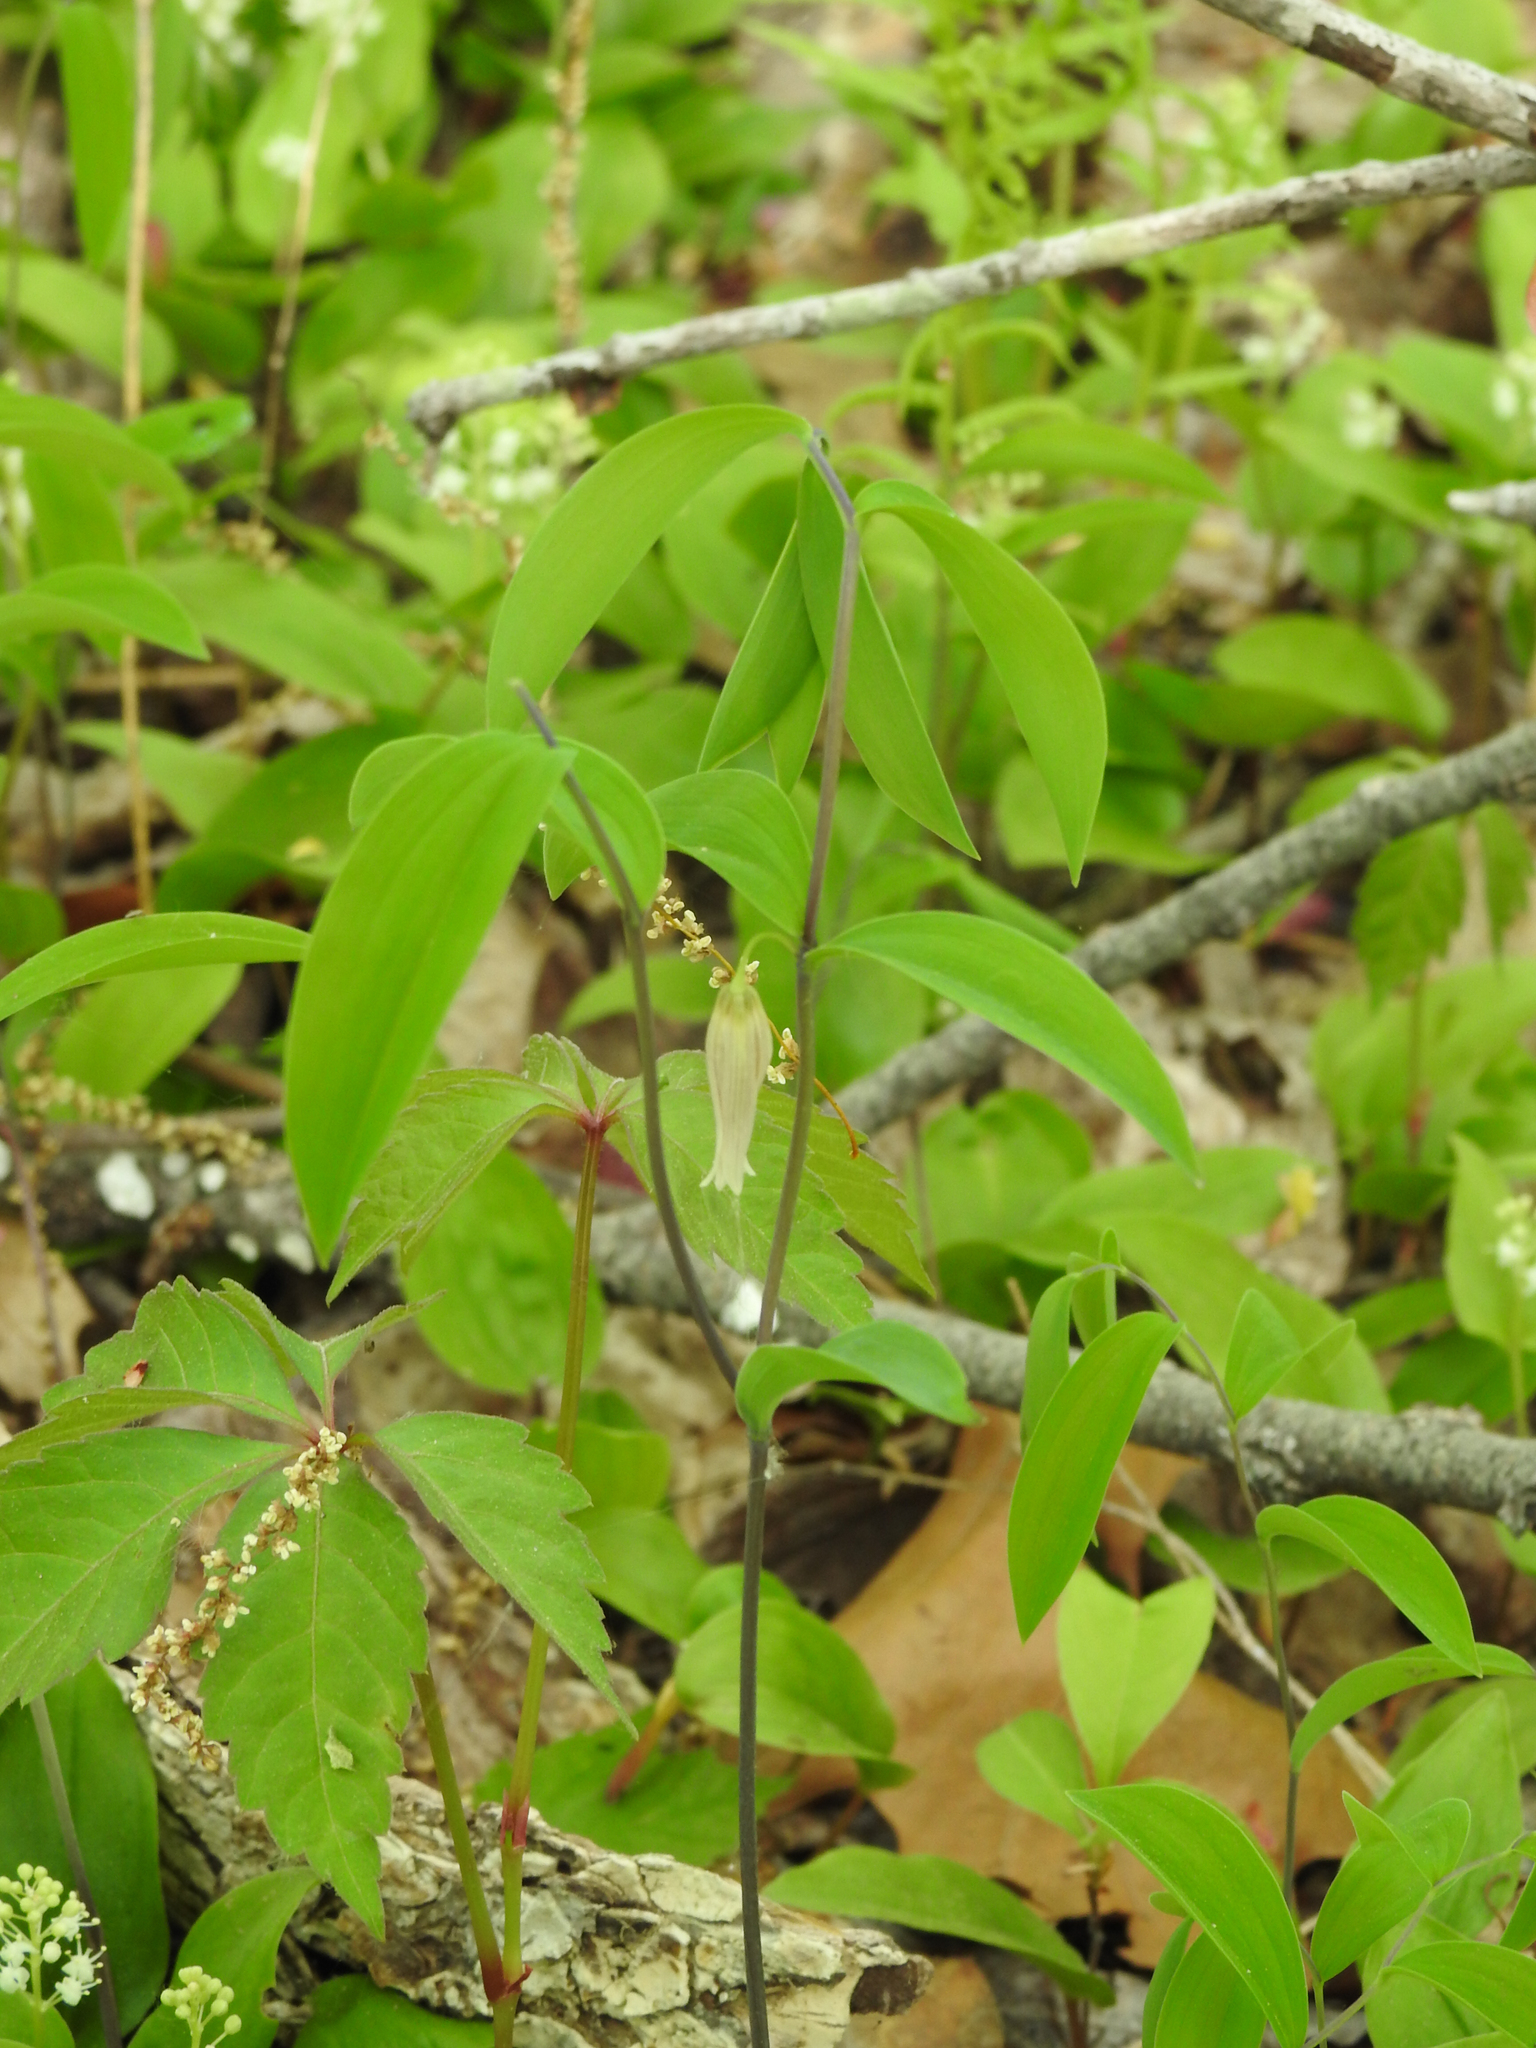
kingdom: Plantae
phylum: Tracheophyta
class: Liliopsida
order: Liliales
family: Colchicaceae
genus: Uvularia
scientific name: Uvularia sessilifolia
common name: Straw-lily
